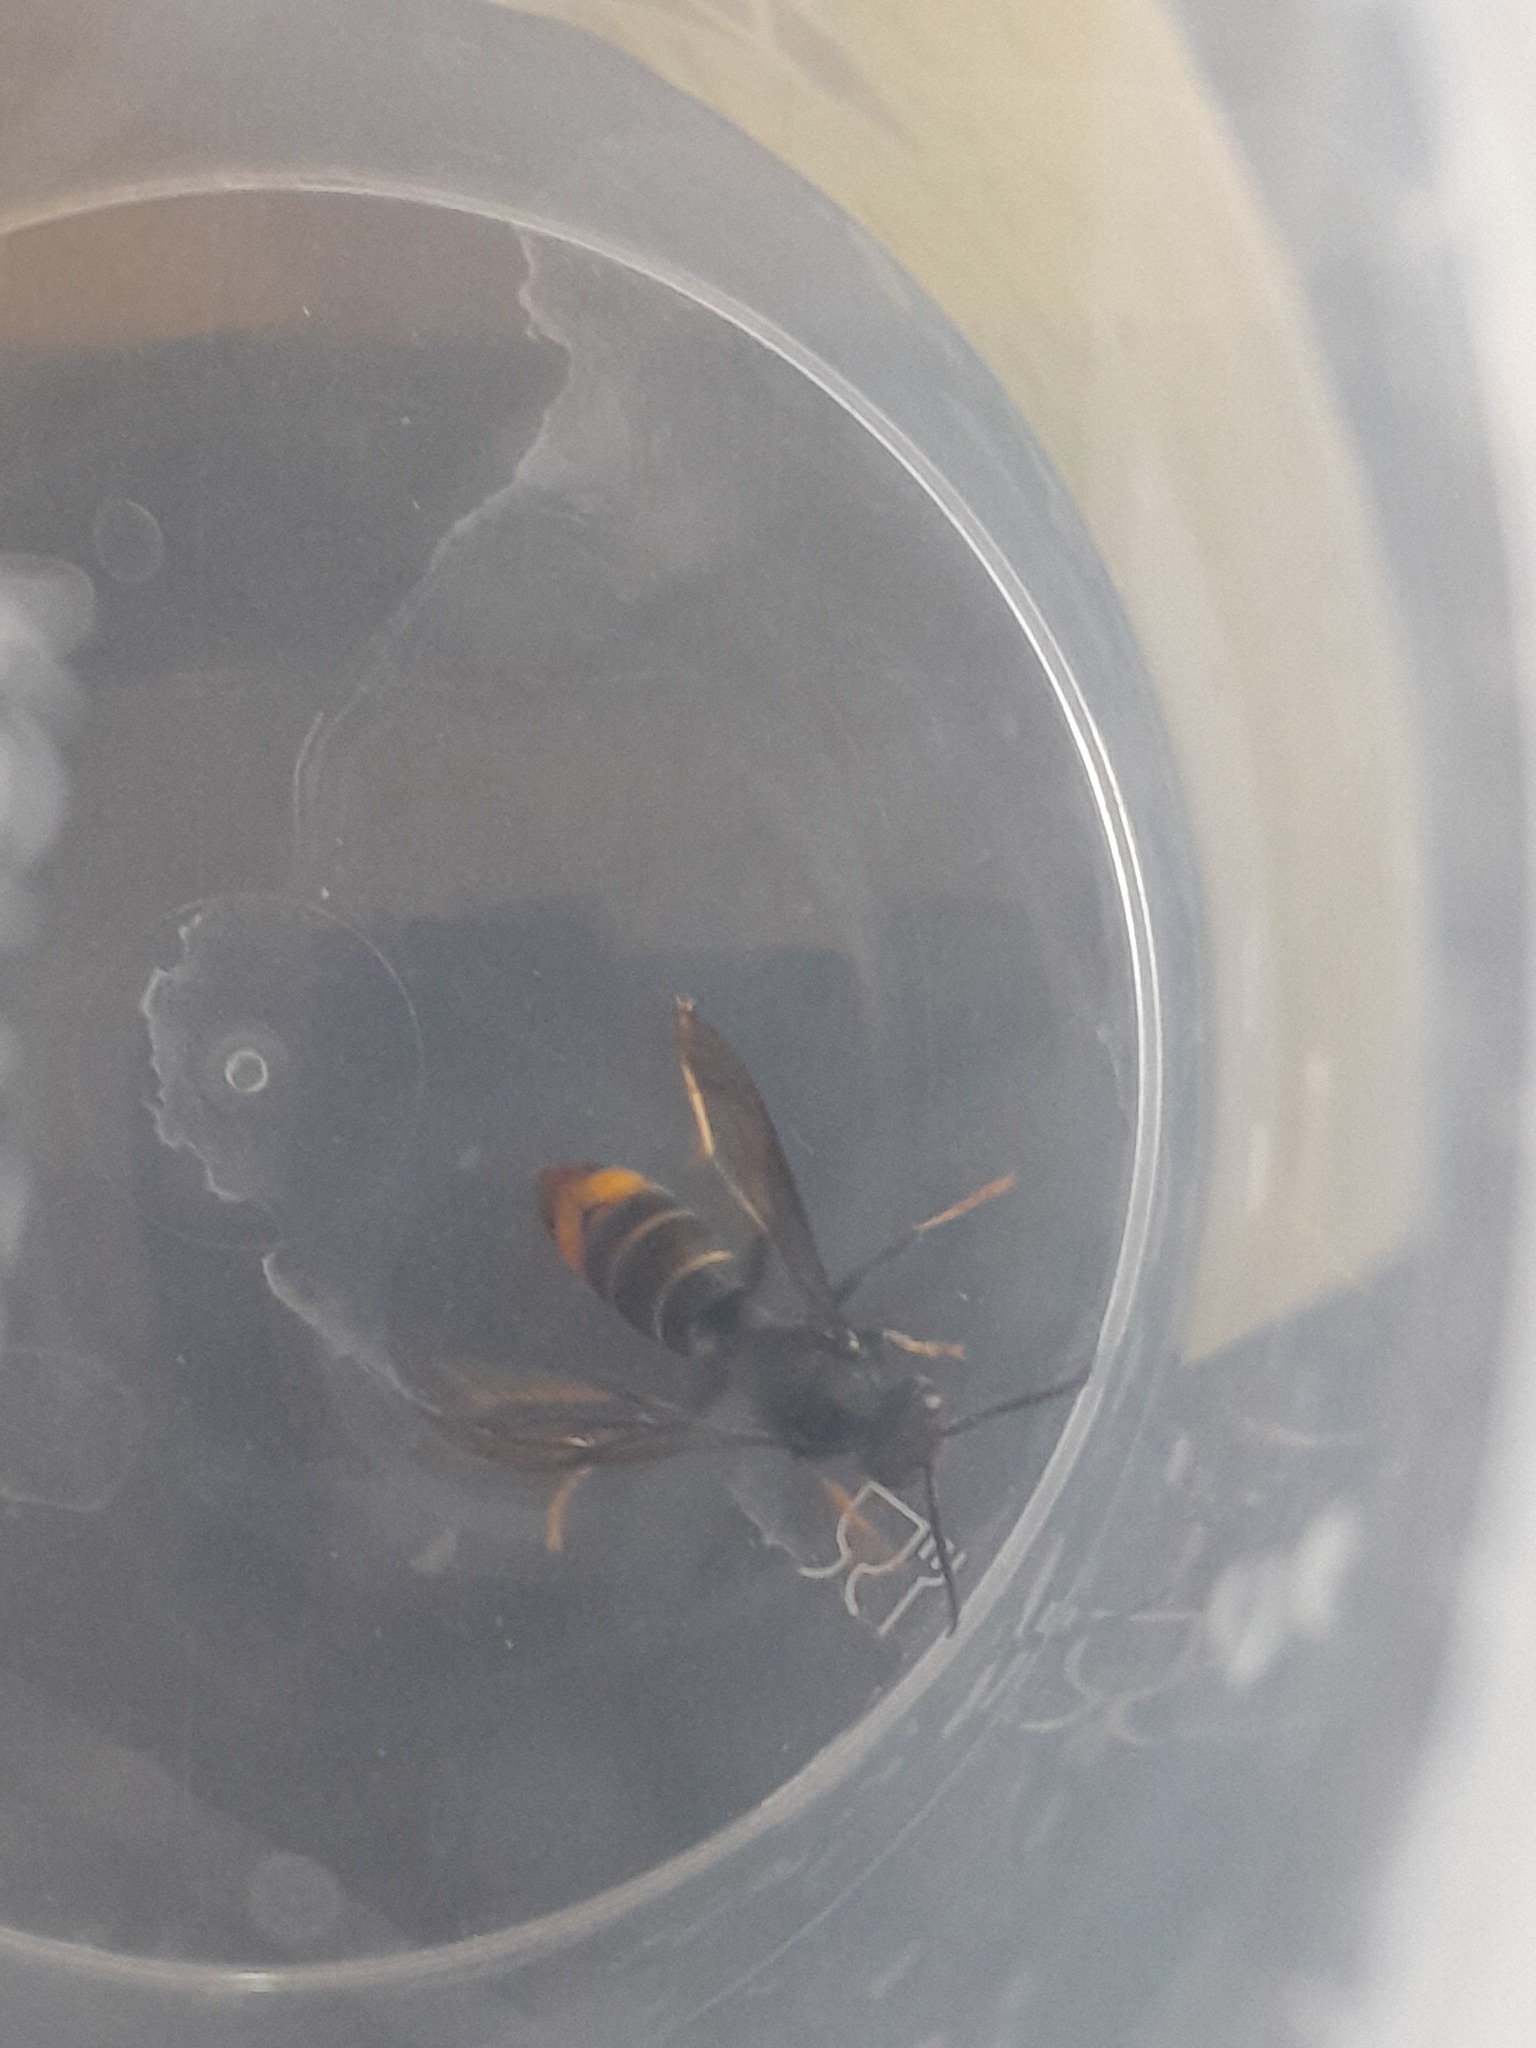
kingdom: Animalia
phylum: Arthropoda
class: Insecta
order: Hymenoptera
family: Vespidae
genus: Vespa
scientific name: Vespa velutina
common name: Asian hornet
